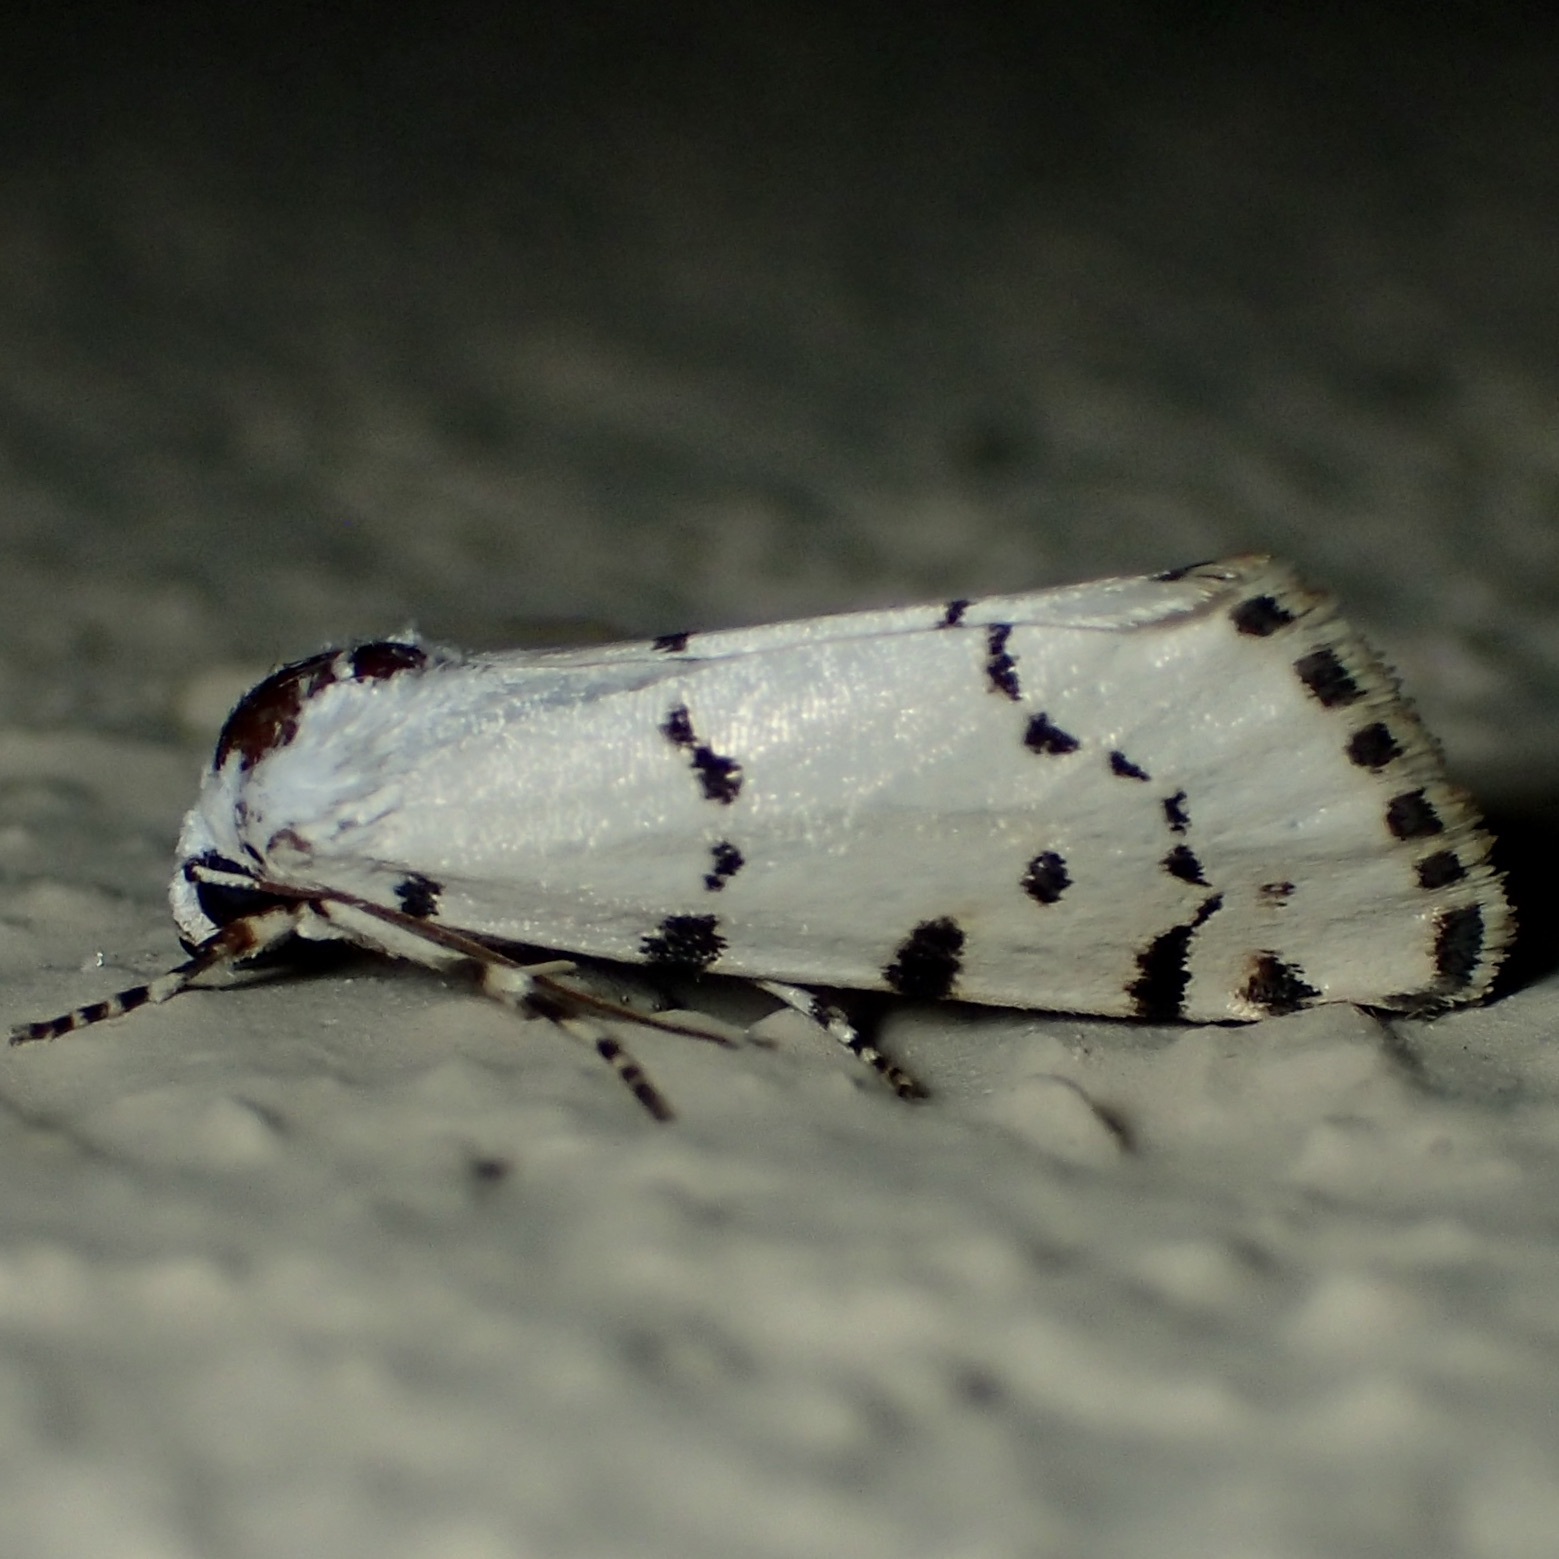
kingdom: Animalia
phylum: Arthropoda
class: Insecta
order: Lepidoptera
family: Noctuidae
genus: Grotella
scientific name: Grotella binda
